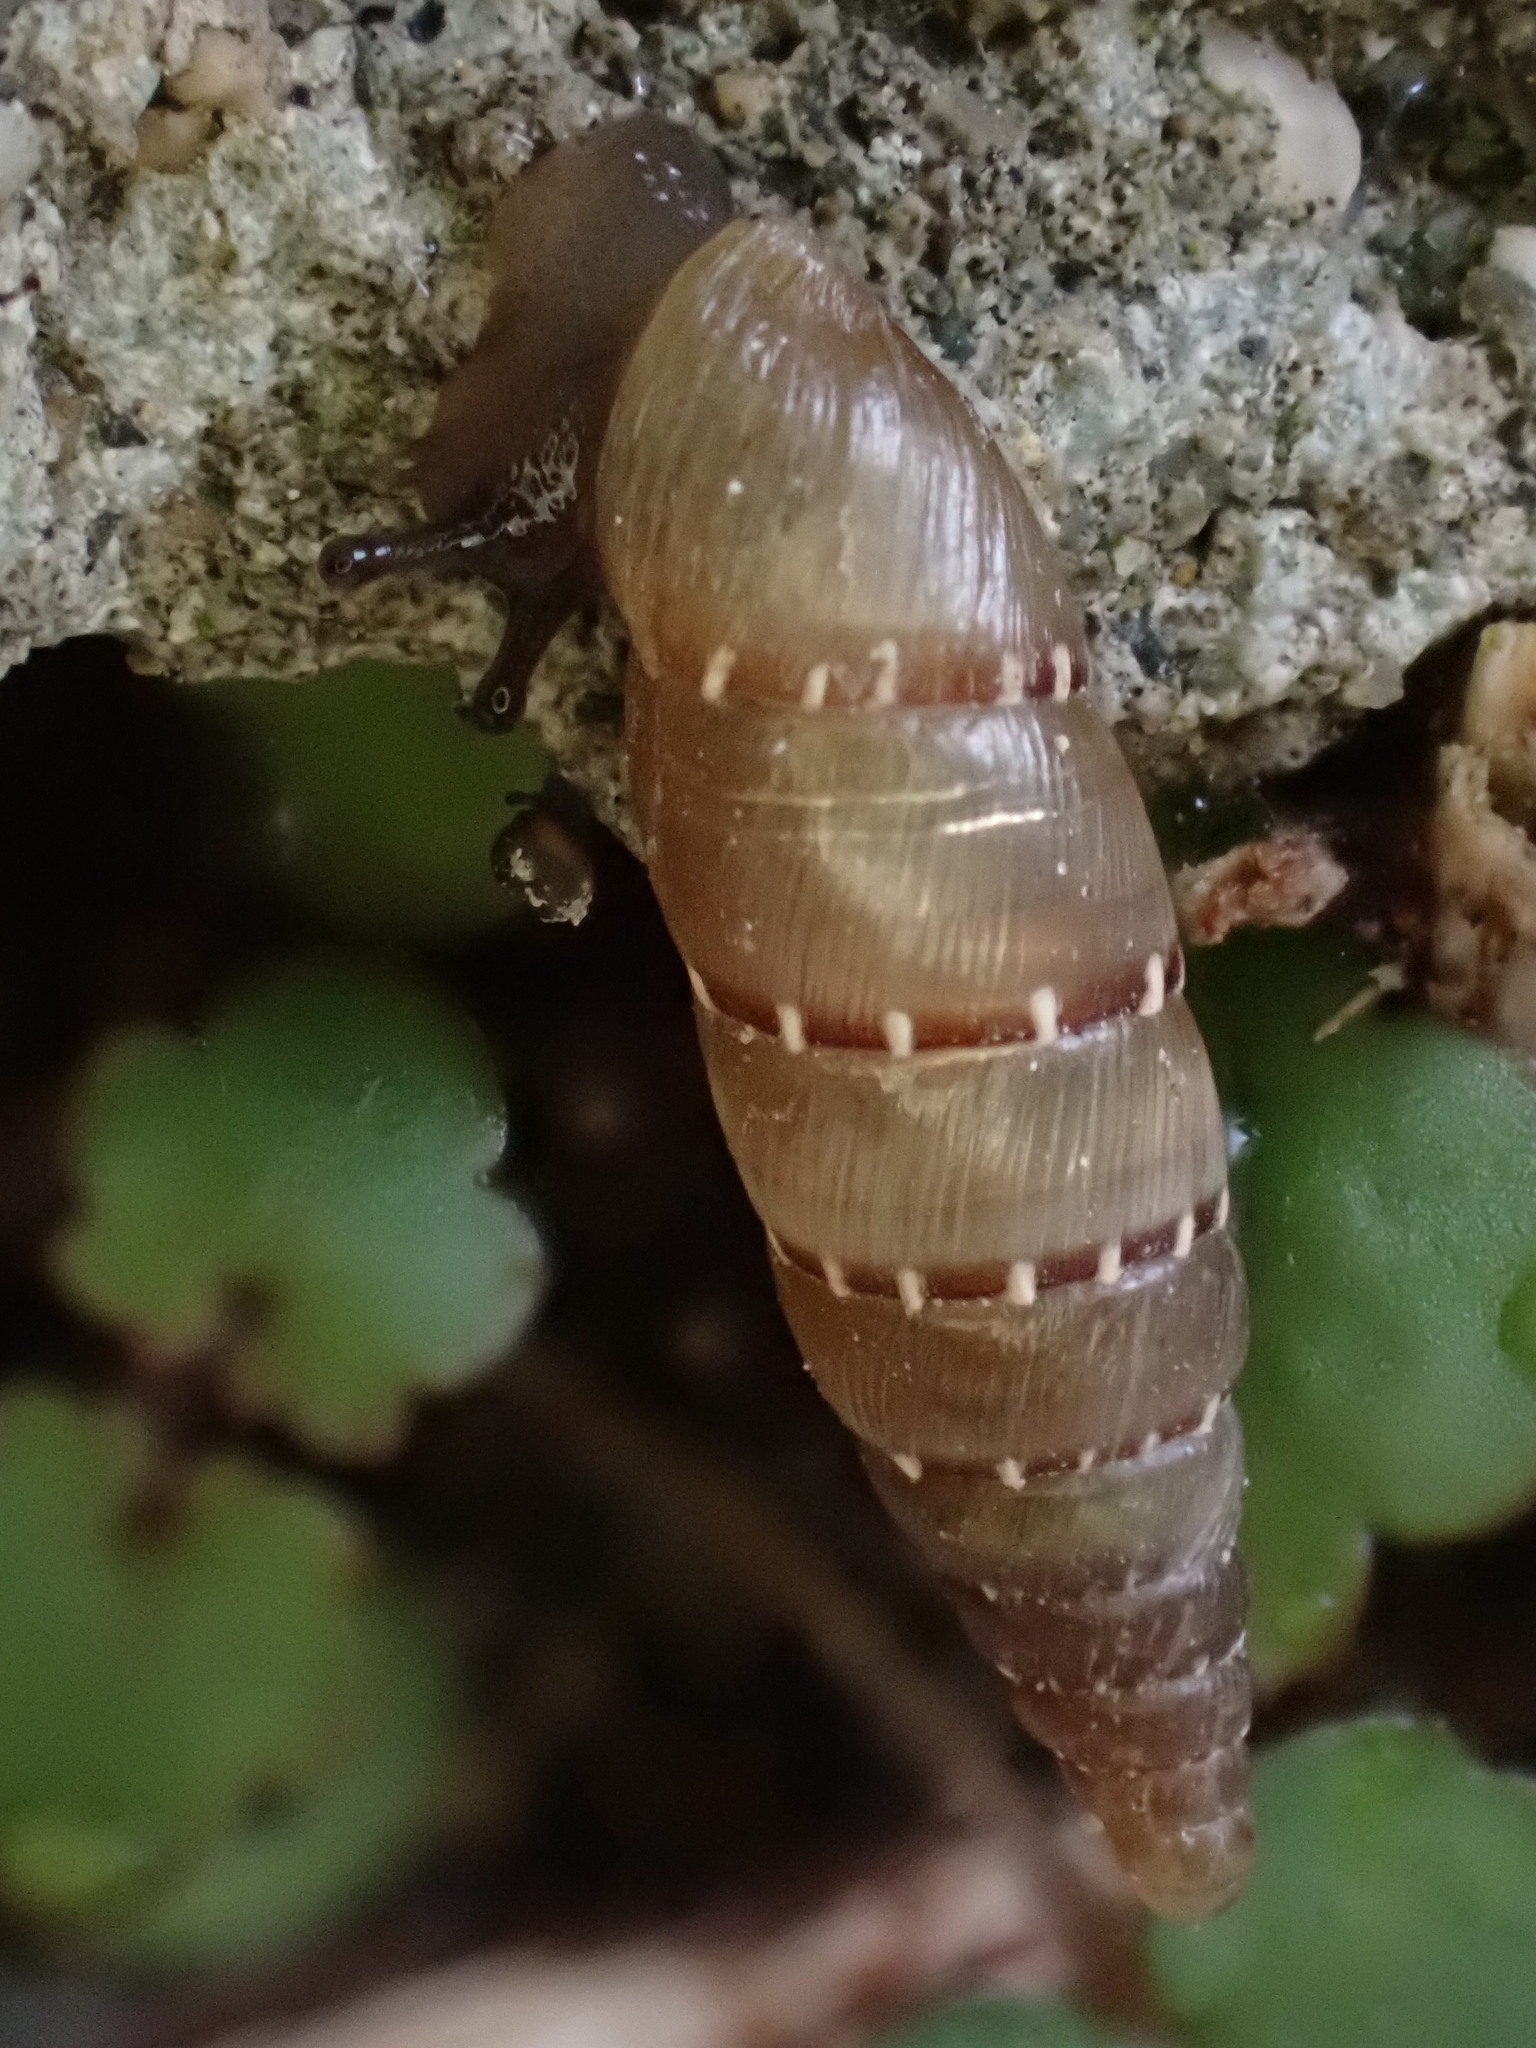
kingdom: Animalia
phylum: Mollusca
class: Gastropoda
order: Stylommatophora
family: Clausiliidae
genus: Papillifera
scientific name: Papillifera papillaris
